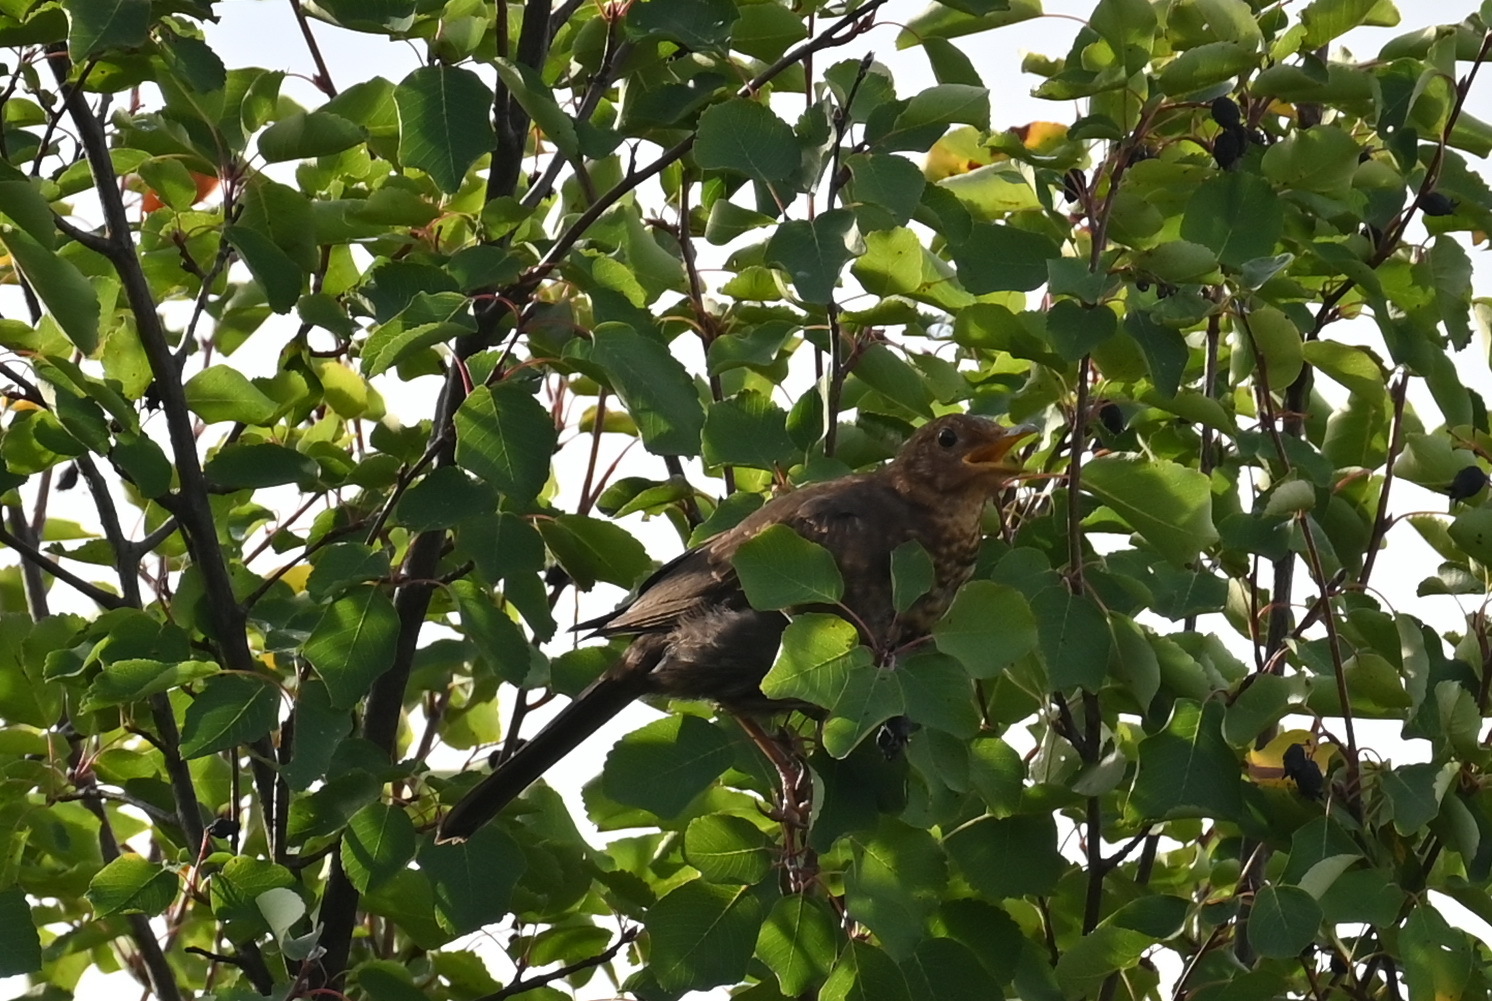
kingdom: Animalia
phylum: Chordata
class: Aves
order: Passeriformes
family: Turdidae
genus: Turdus
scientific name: Turdus merula
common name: Common blackbird
